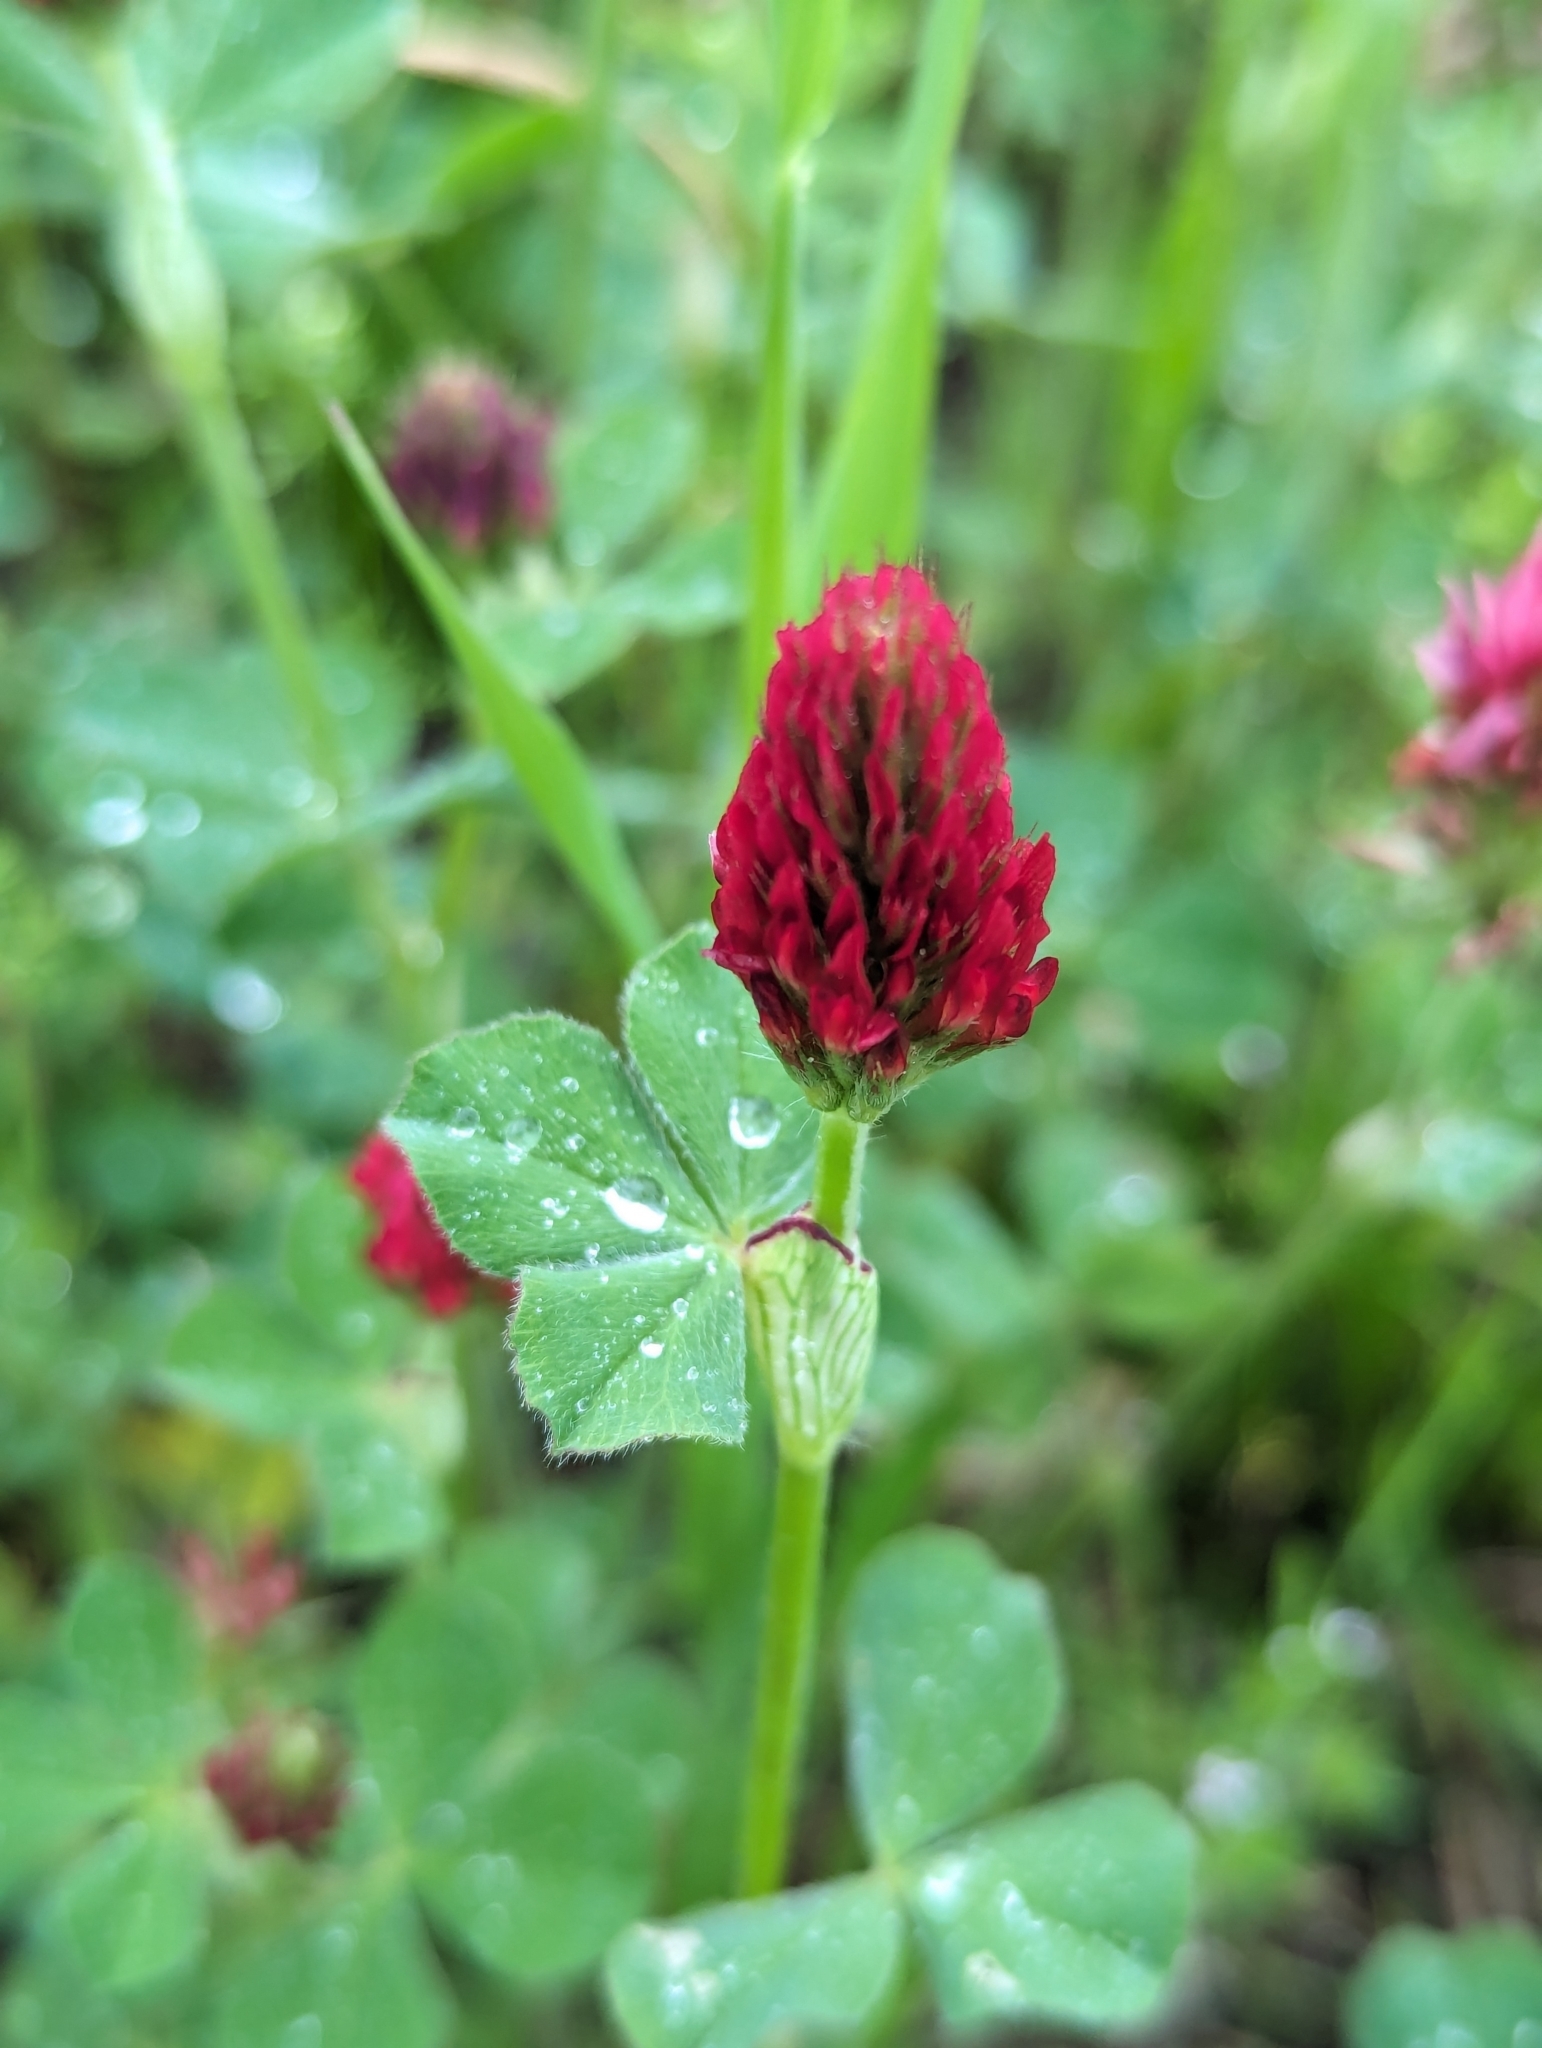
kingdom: Plantae
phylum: Tracheophyta
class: Magnoliopsida
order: Fabales
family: Fabaceae
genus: Trifolium
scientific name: Trifolium incarnatum
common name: Crimson clover
